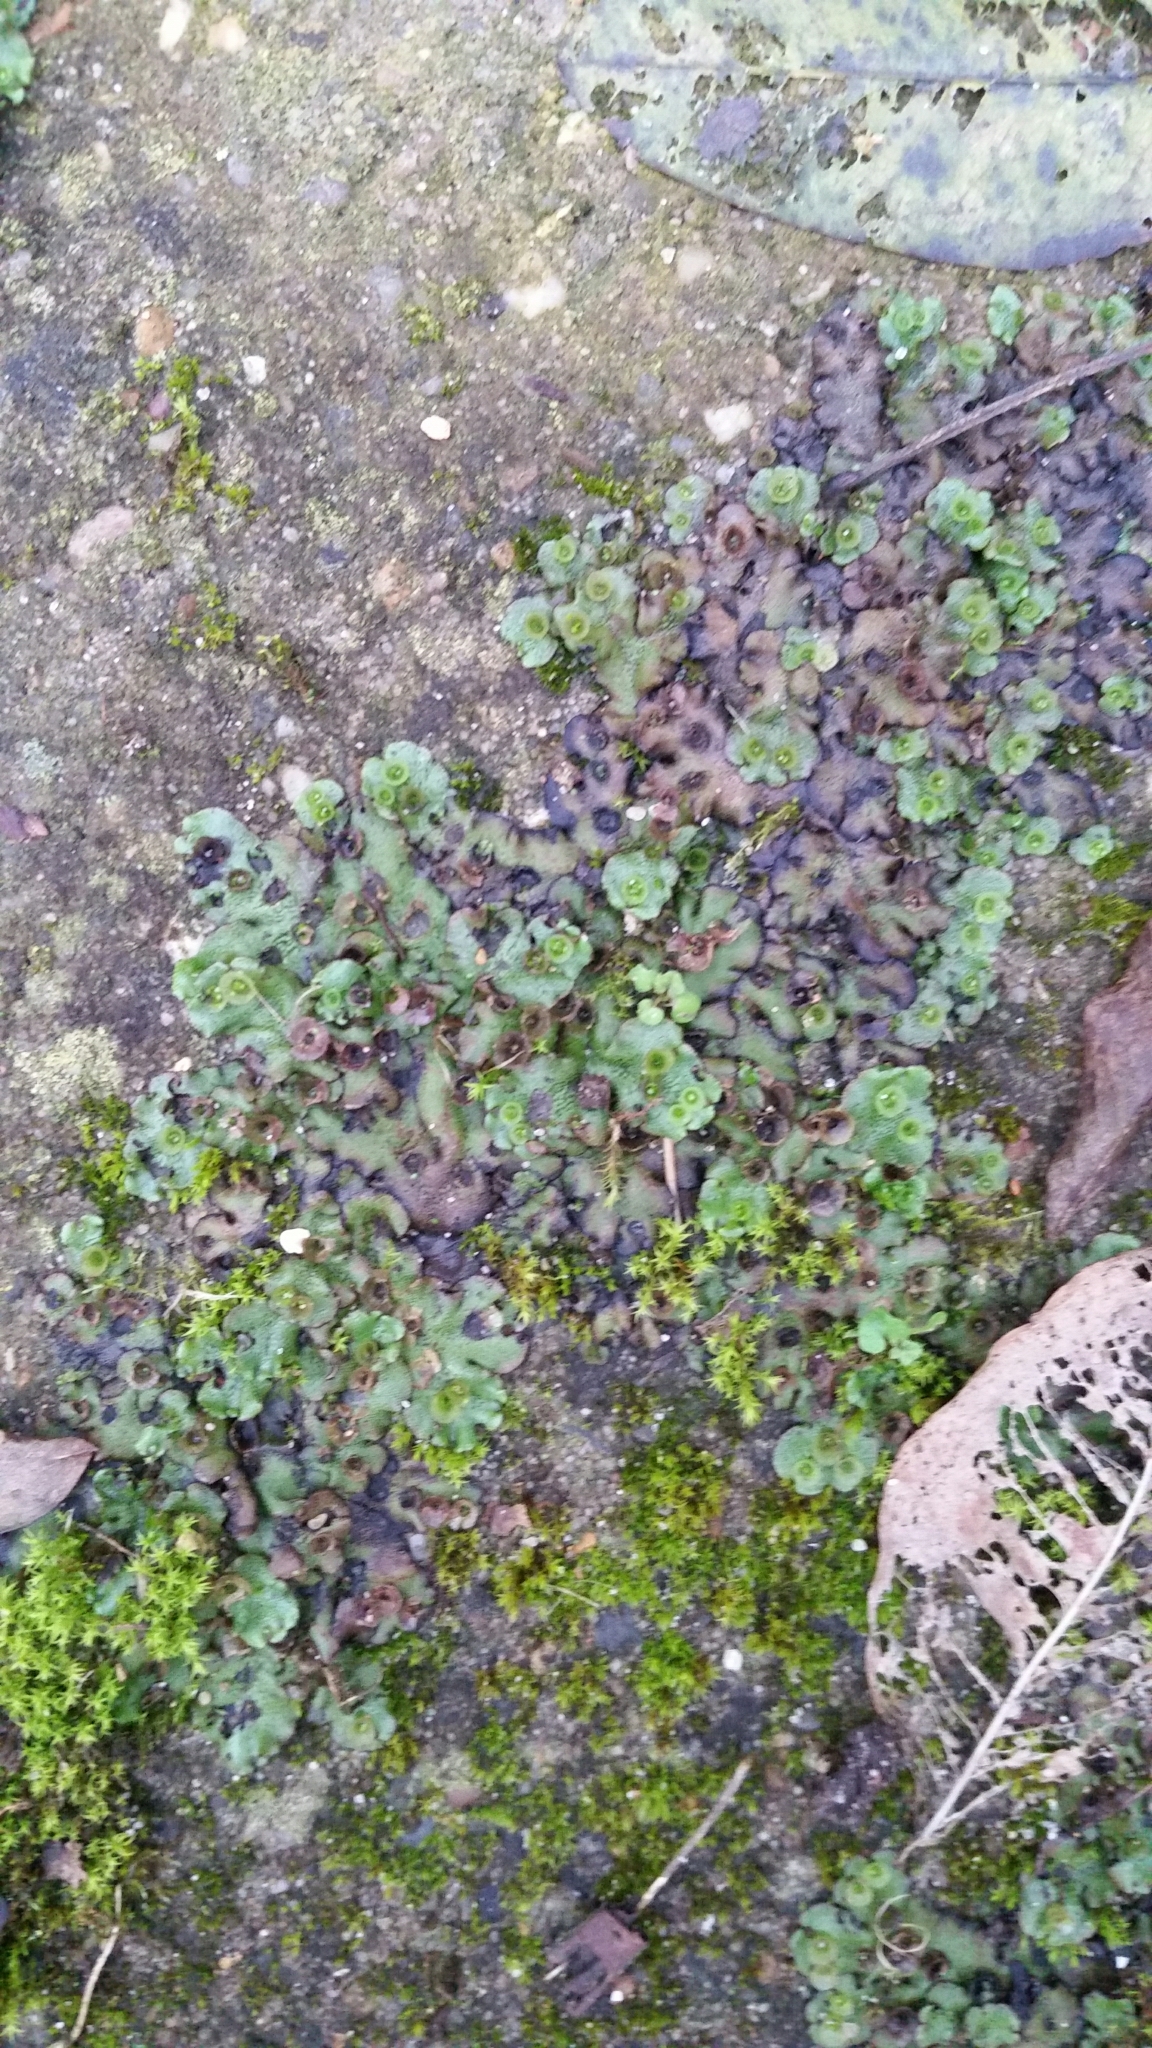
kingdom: Plantae
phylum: Marchantiophyta
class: Marchantiopsida
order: Marchantiales
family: Marchantiaceae
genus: Marchantia
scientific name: Marchantia polymorpha
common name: Common liverwort
